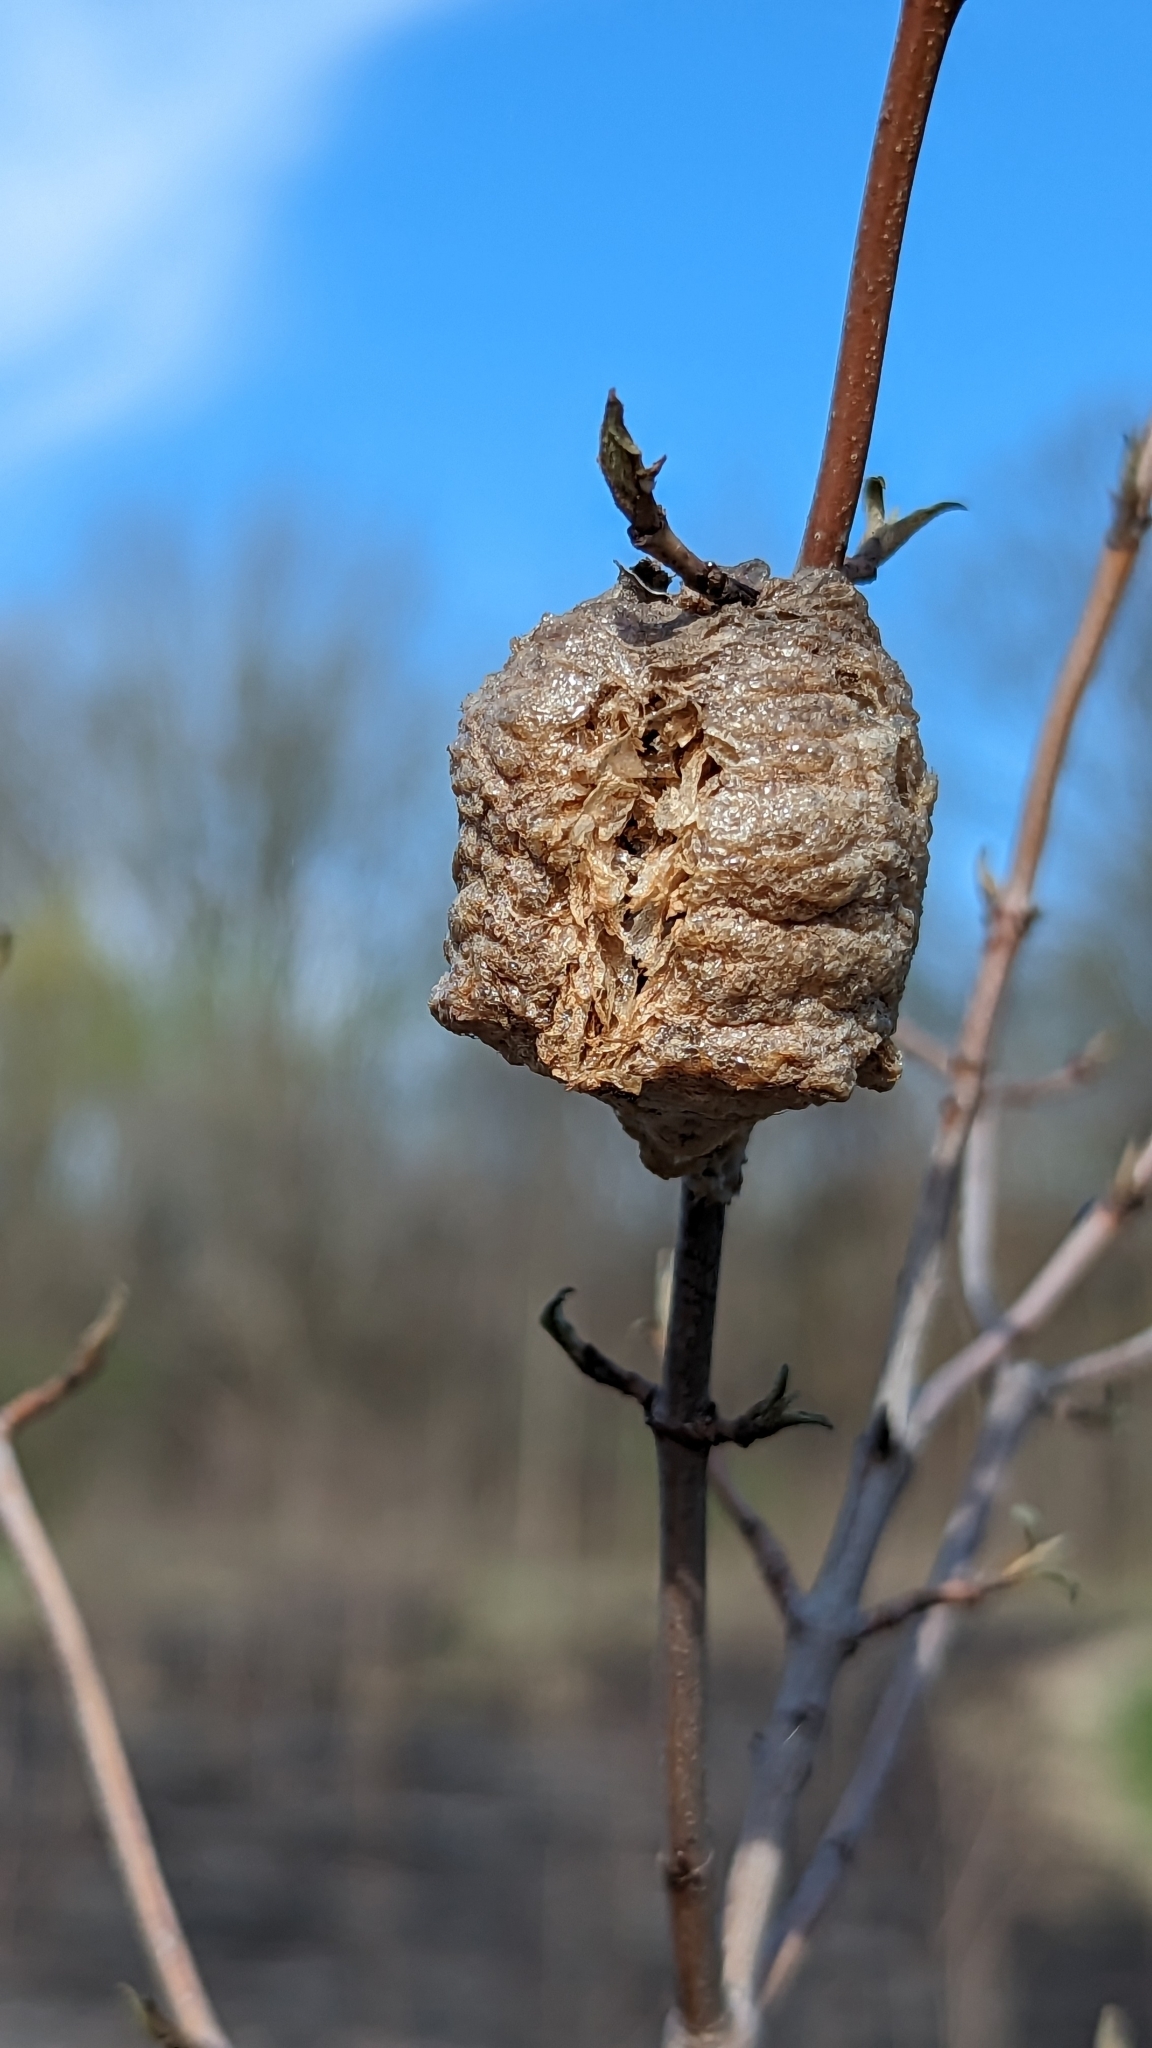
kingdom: Animalia
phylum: Arthropoda
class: Insecta
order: Mantodea
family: Mantidae
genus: Tenodera
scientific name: Tenodera sinensis
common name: Chinese mantis
